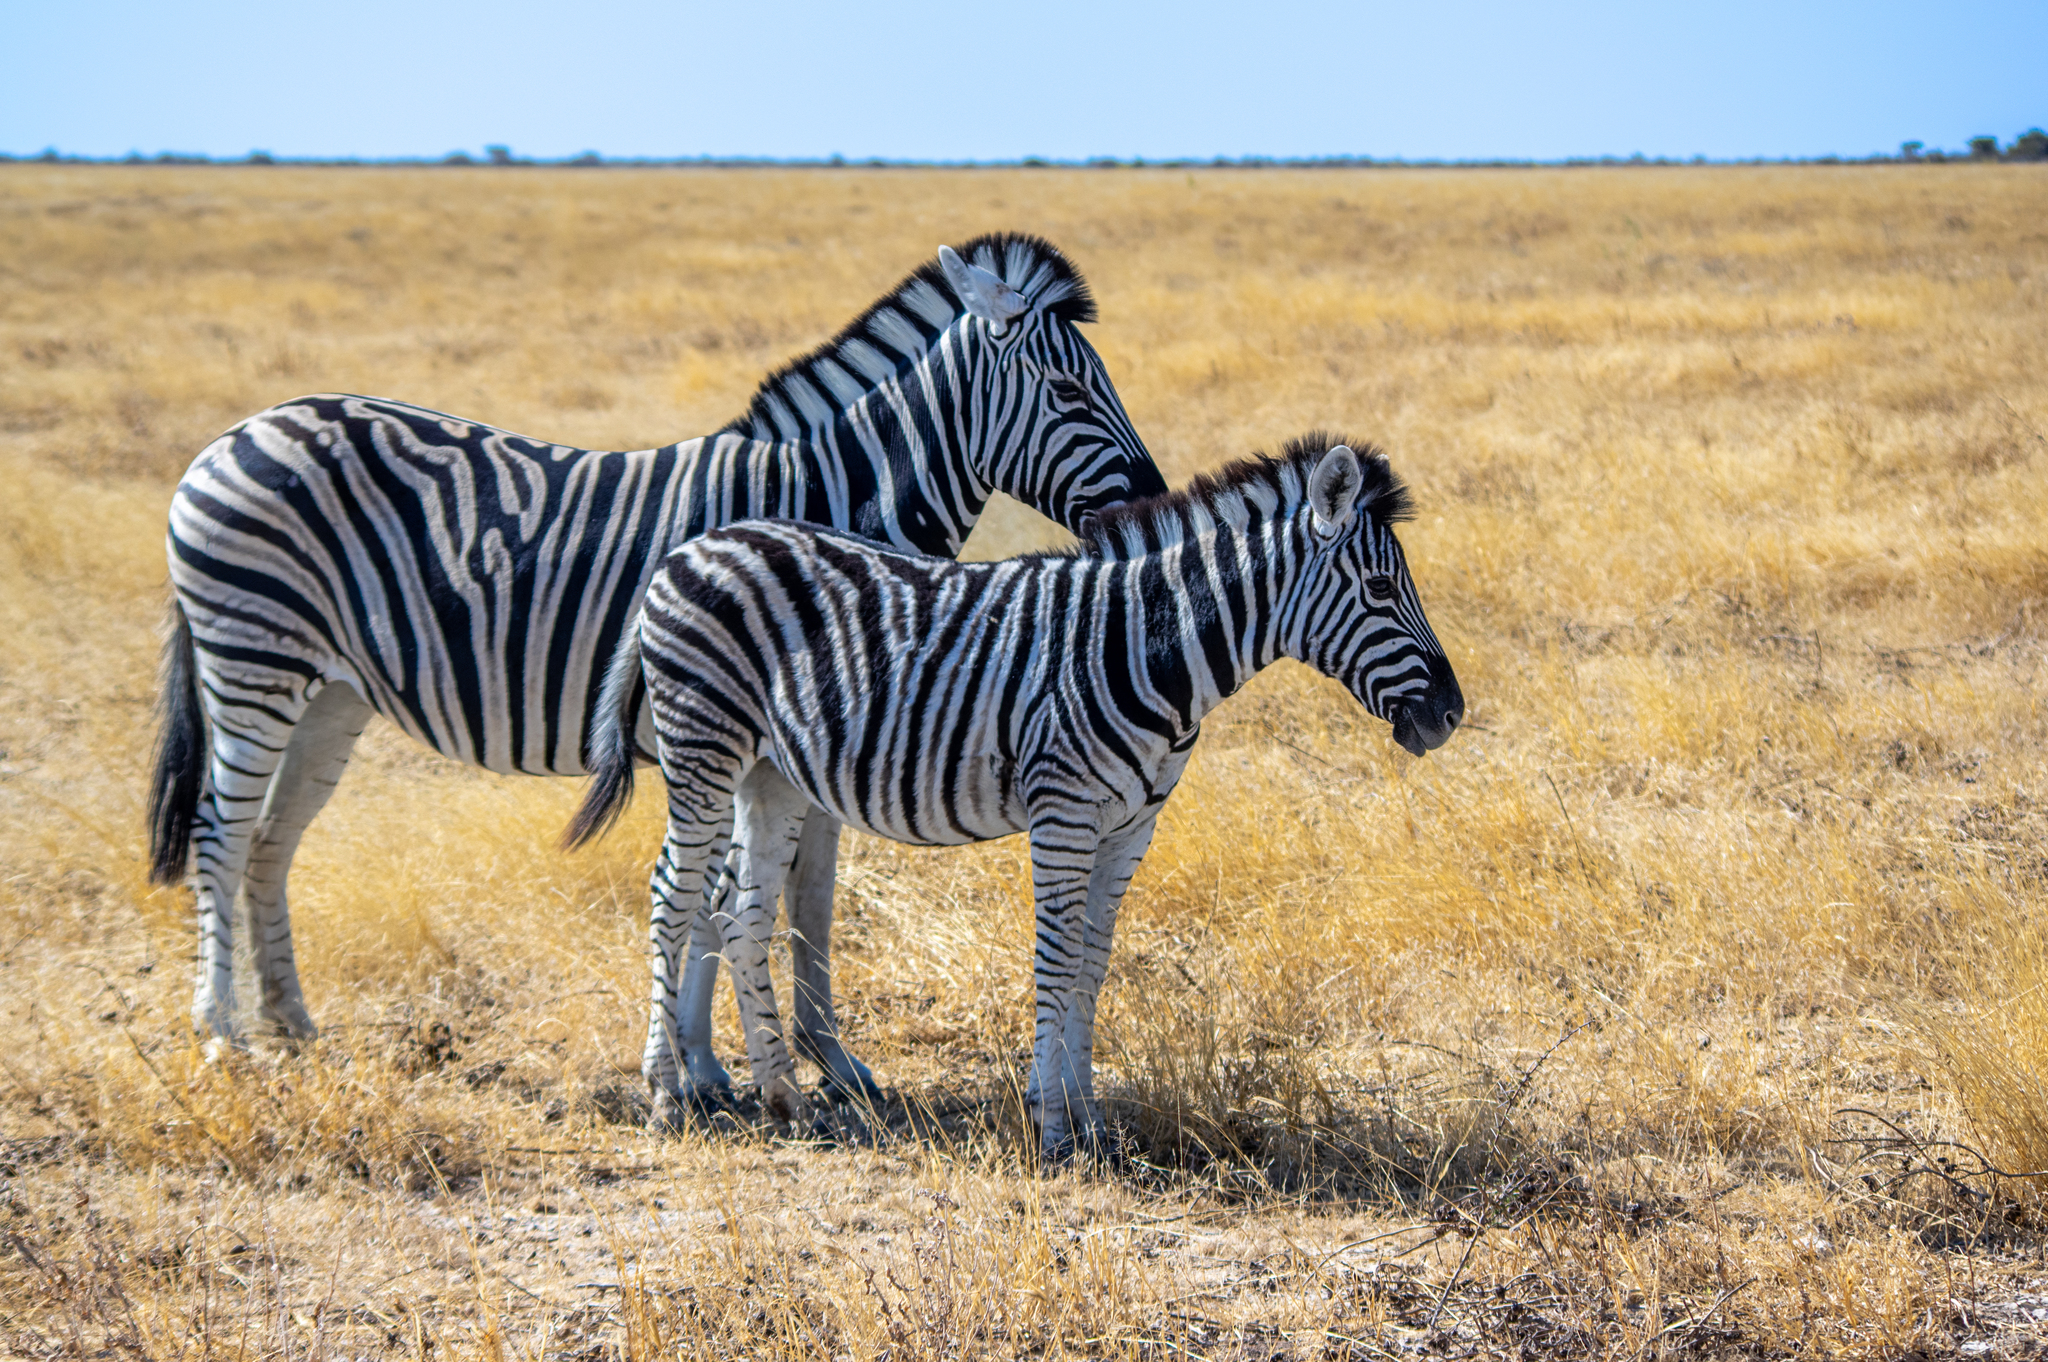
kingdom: Animalia
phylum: Chordata
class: Mammalia
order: Perissodactyla
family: Equidae
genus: Equus
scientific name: Equus quagga
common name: Plains zebra
